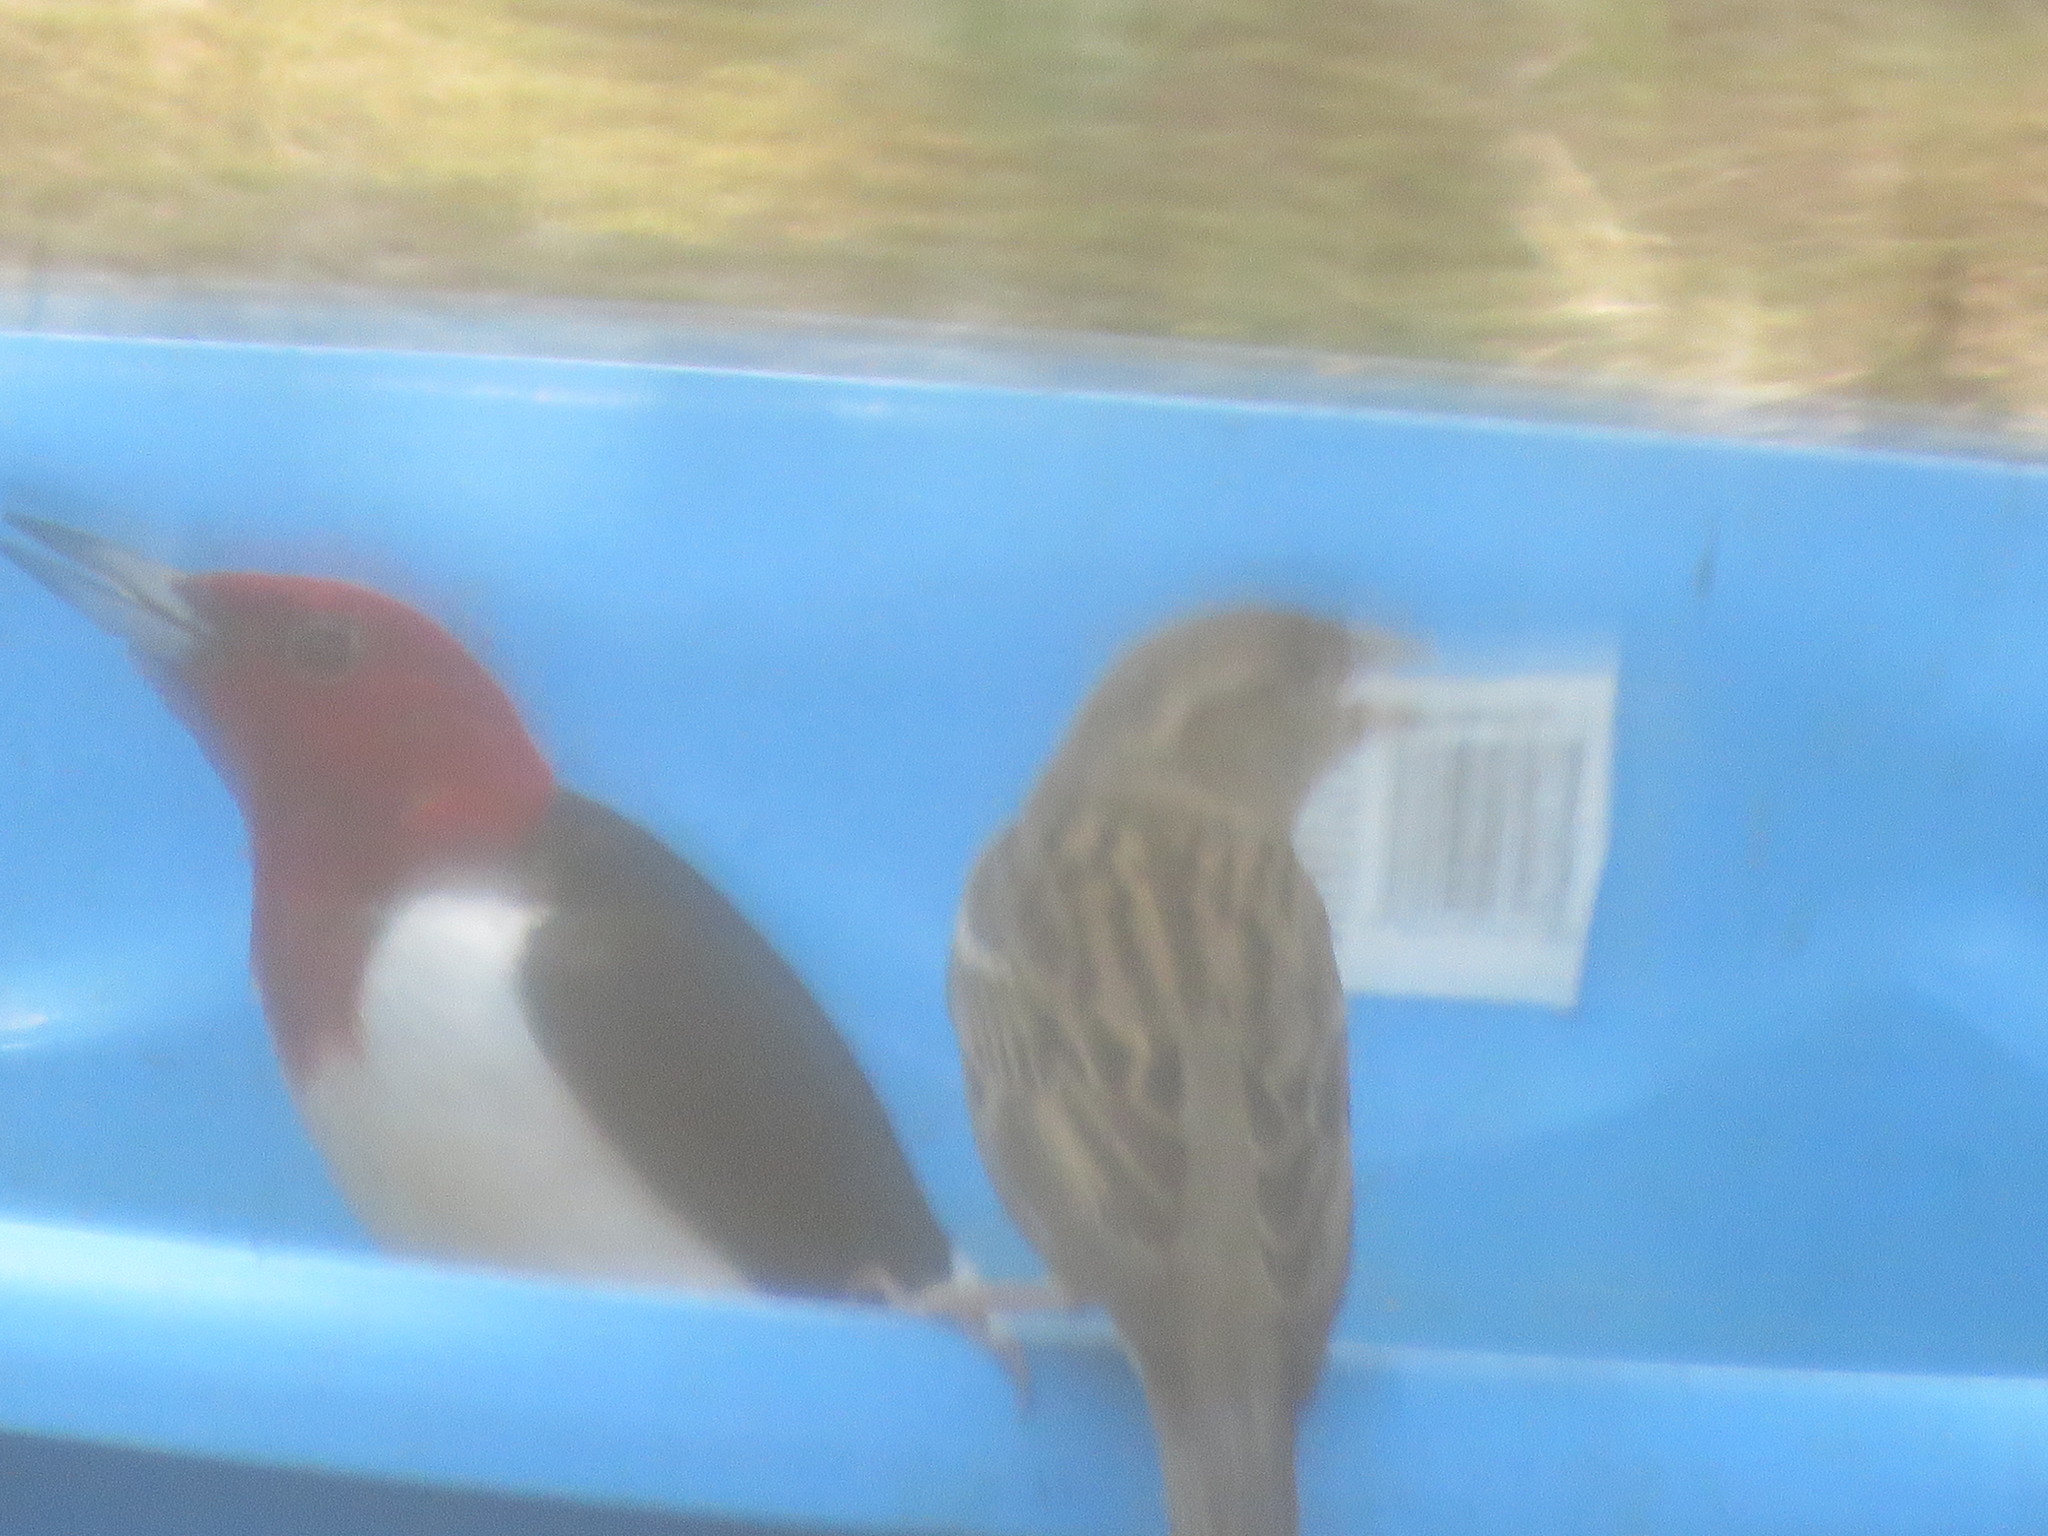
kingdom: Animalia
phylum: Chordata
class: Aves
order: Piciformes
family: Picidae
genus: Melanerpes
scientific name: Melanerpes erythrocephalus
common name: Red-headed woodpecker
